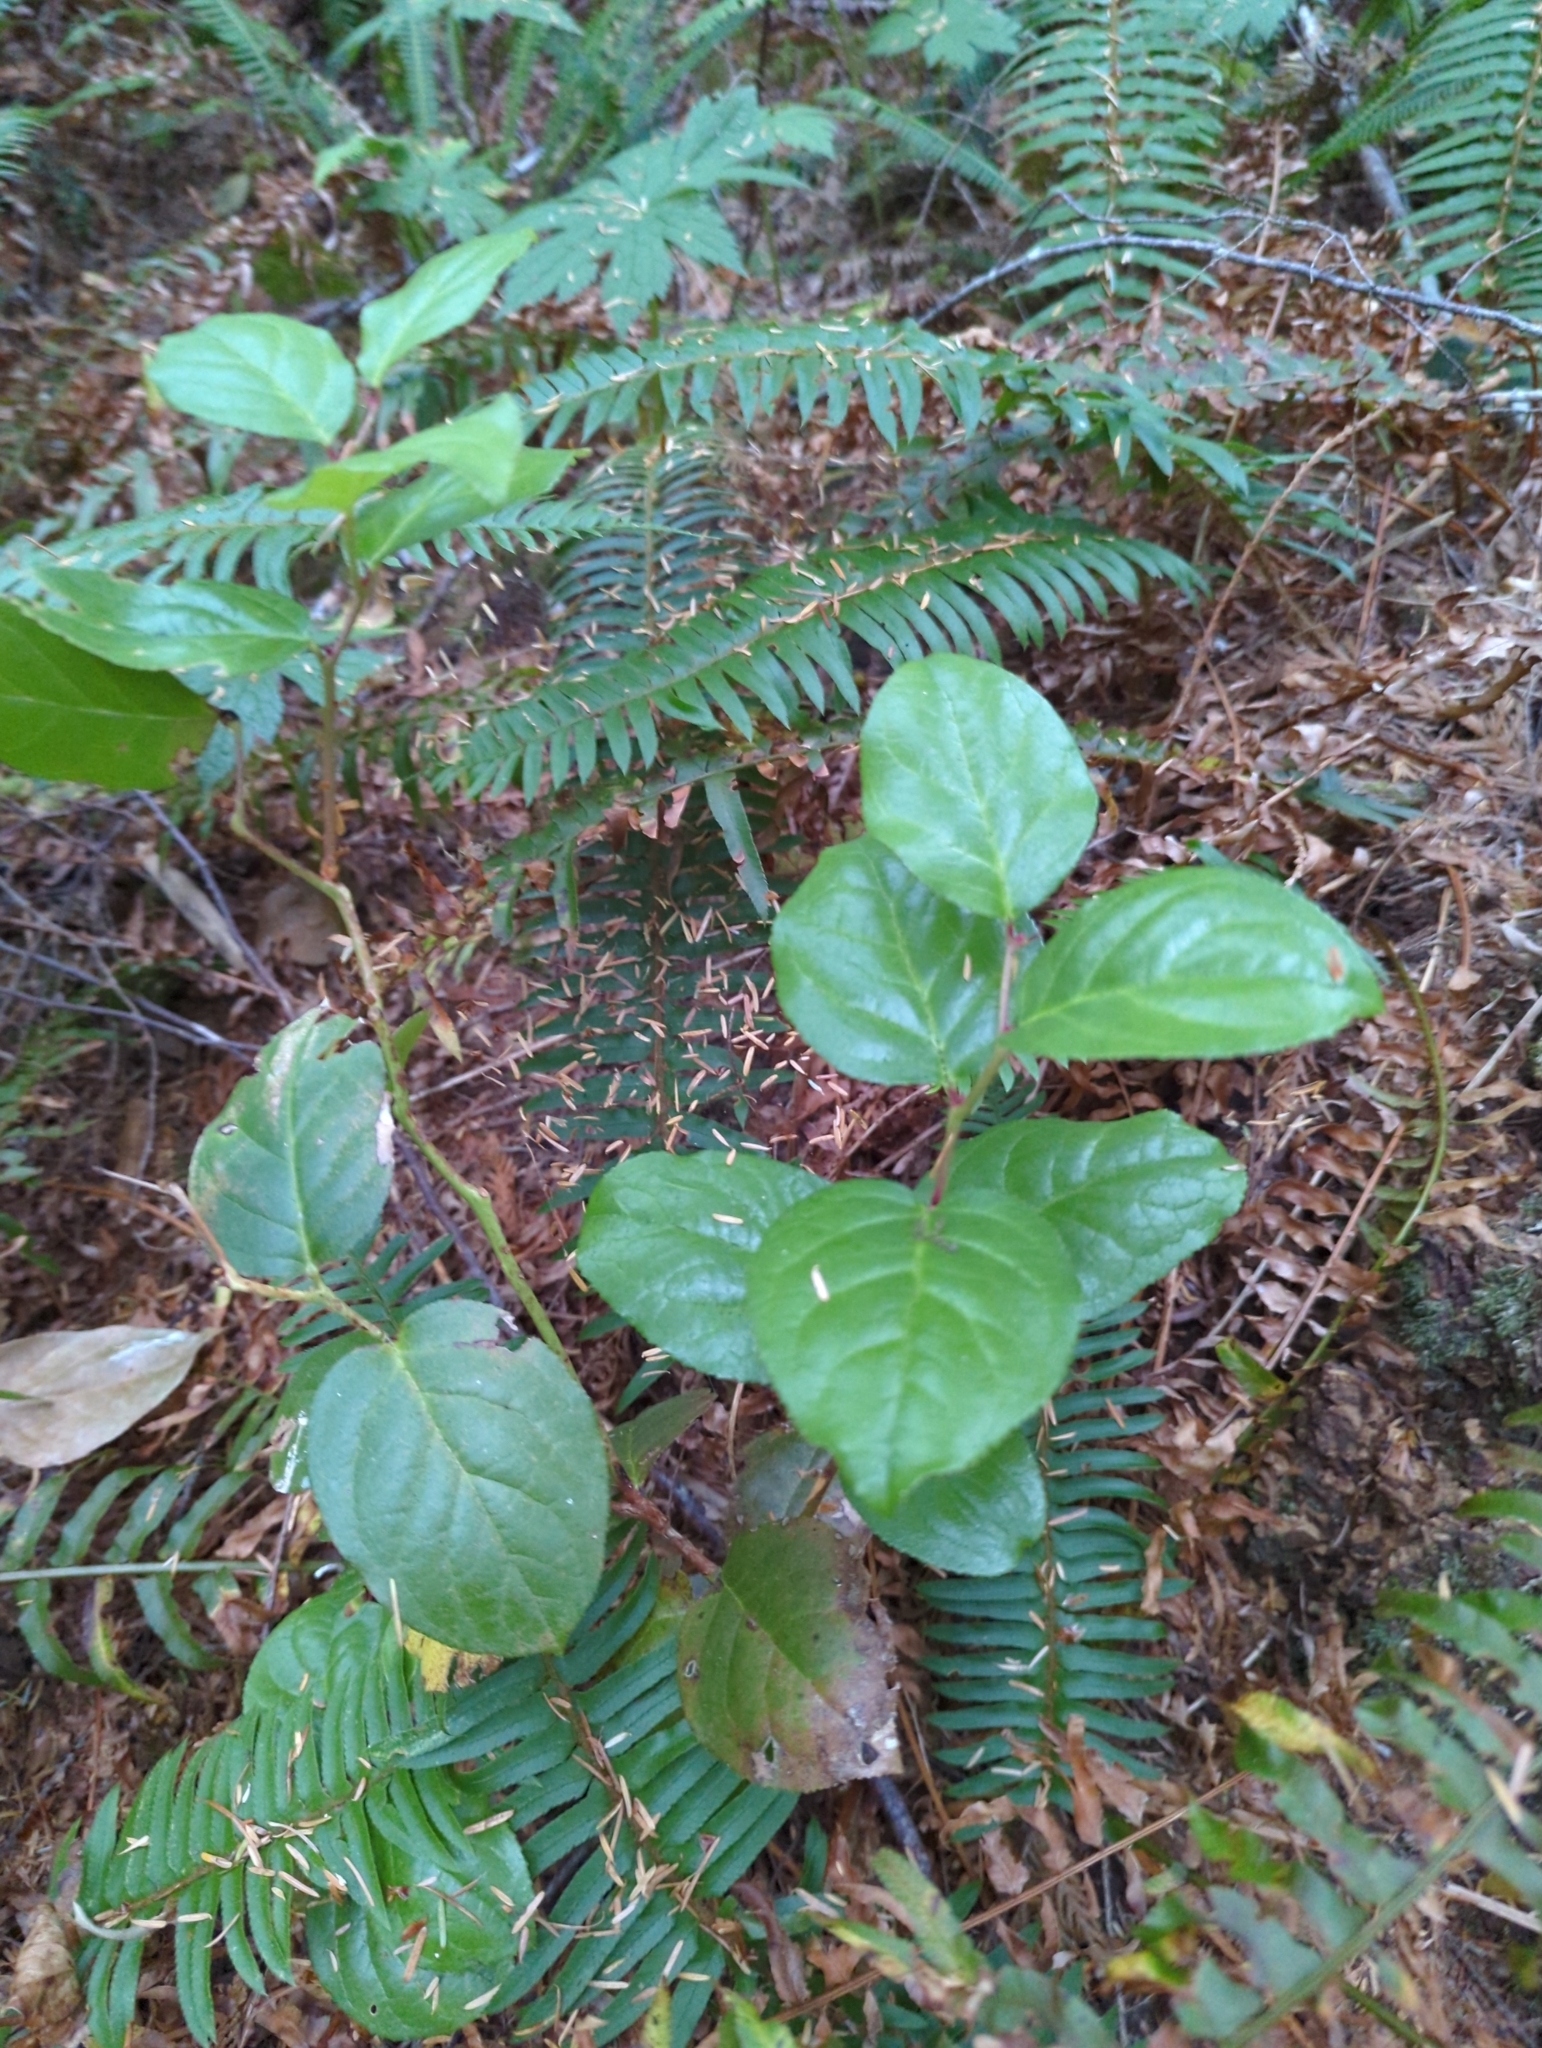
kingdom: Plantae
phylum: Tracheophyta
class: Magnoliopsida
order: Ericales
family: Ericaceae
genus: Gaultheria
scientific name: Gaultheria shallon
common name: Shallon
